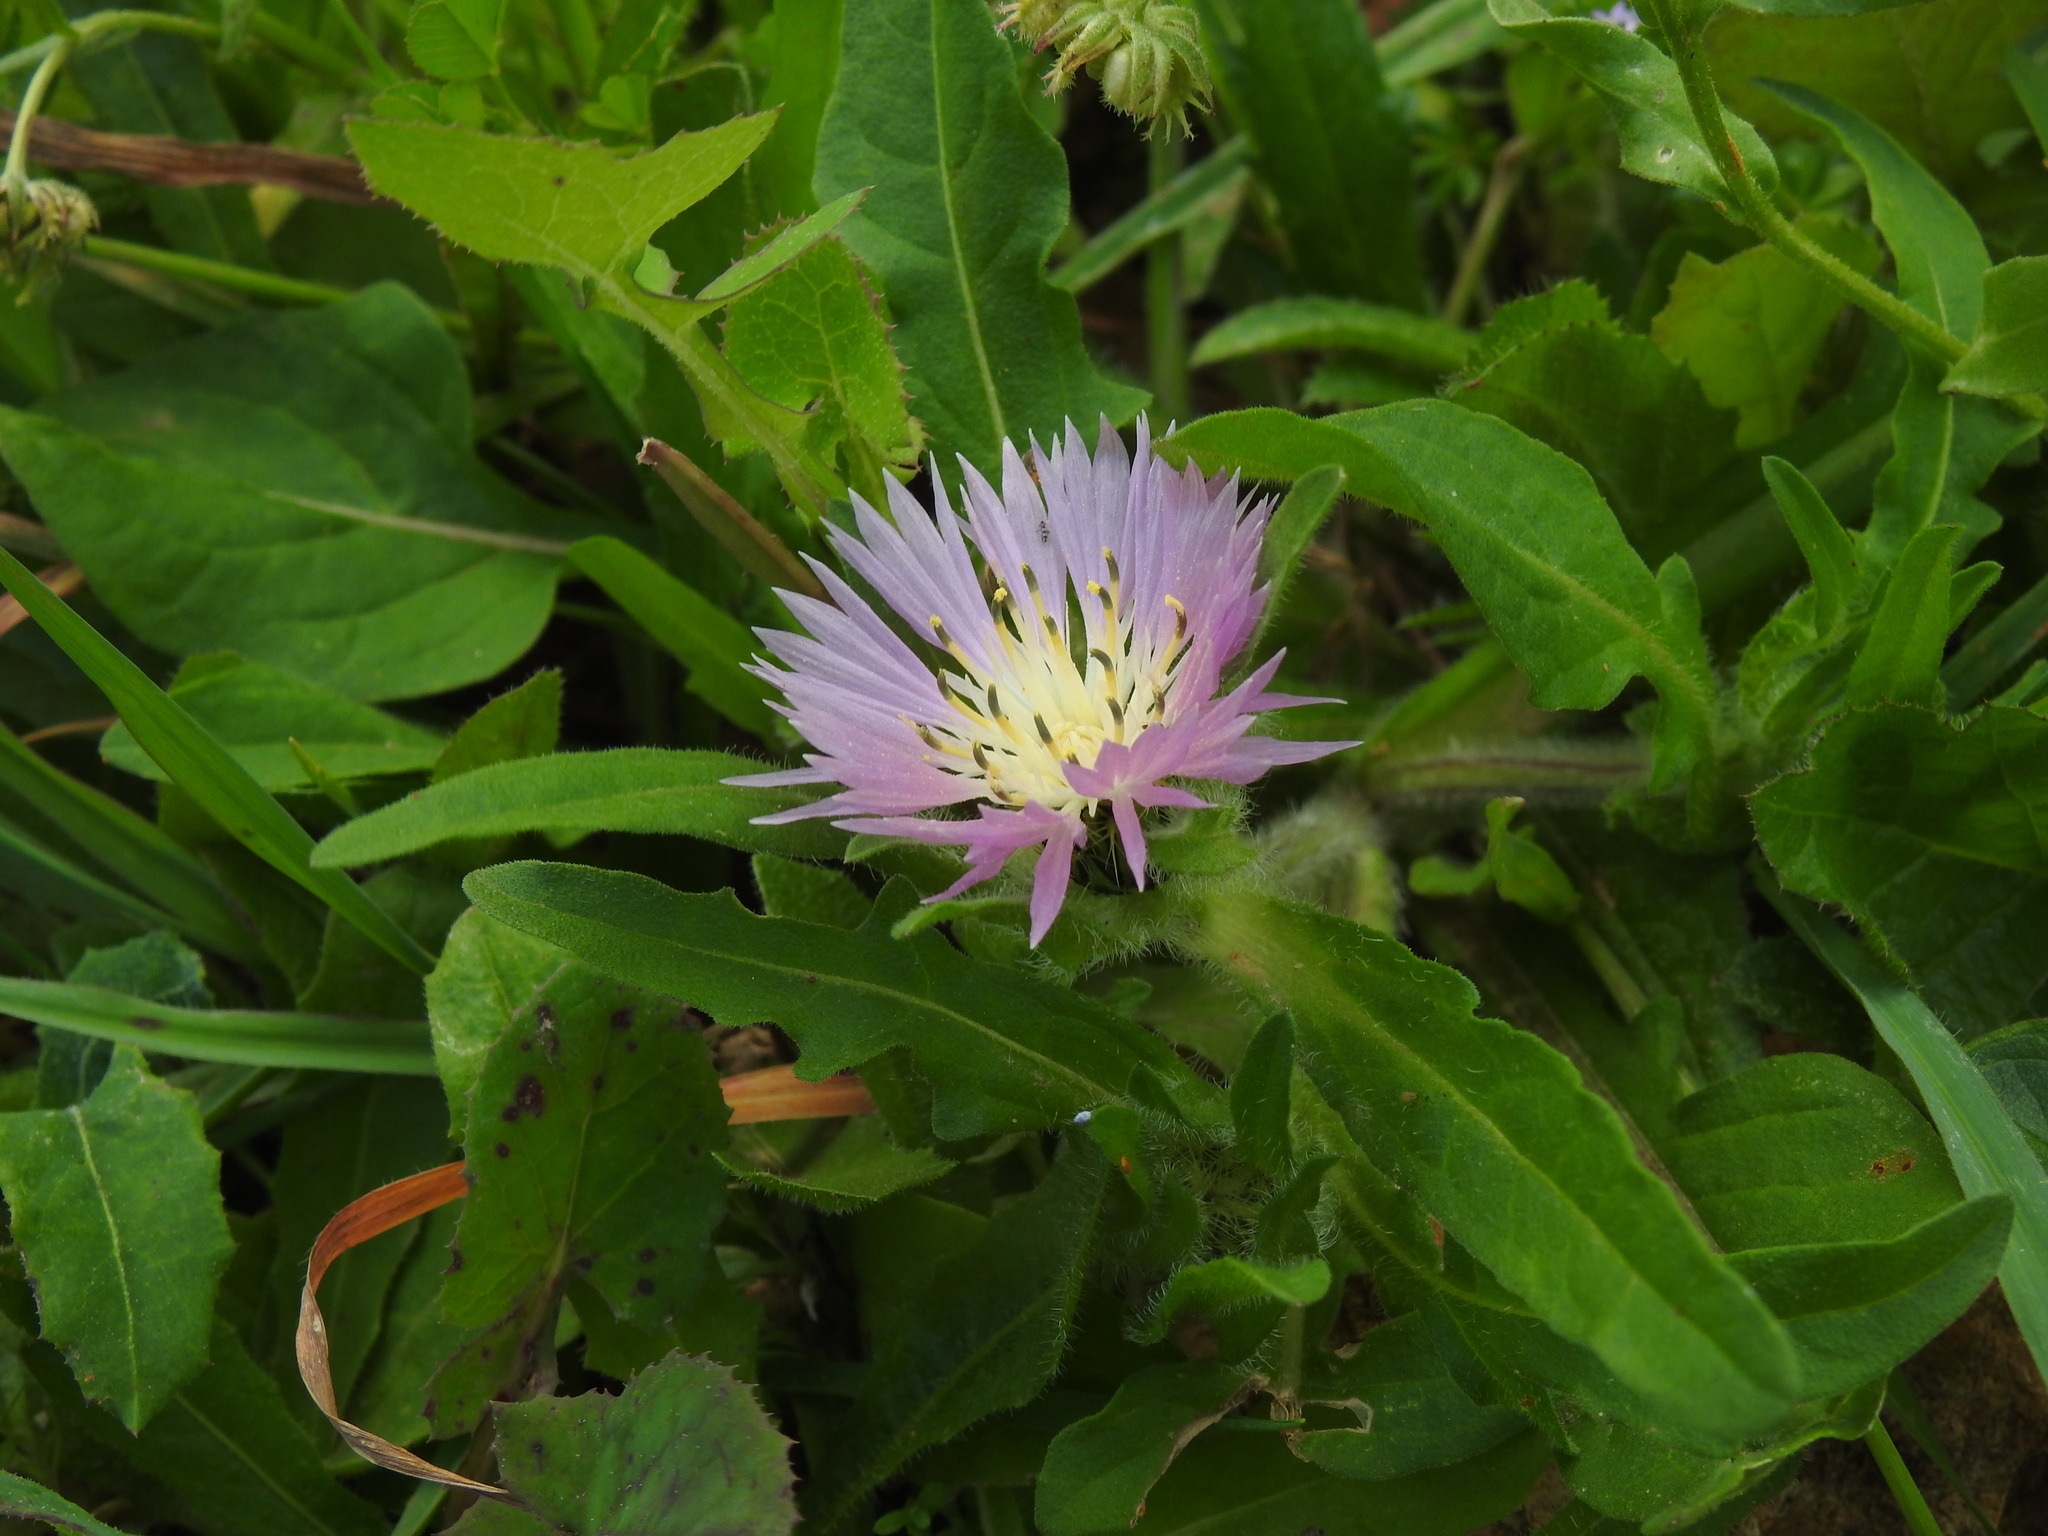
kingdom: Plantae
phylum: Tracheophyta
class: Magnoliopsida
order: Asterales
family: Asteraceae
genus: Centaurea
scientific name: Centaurea pullata
